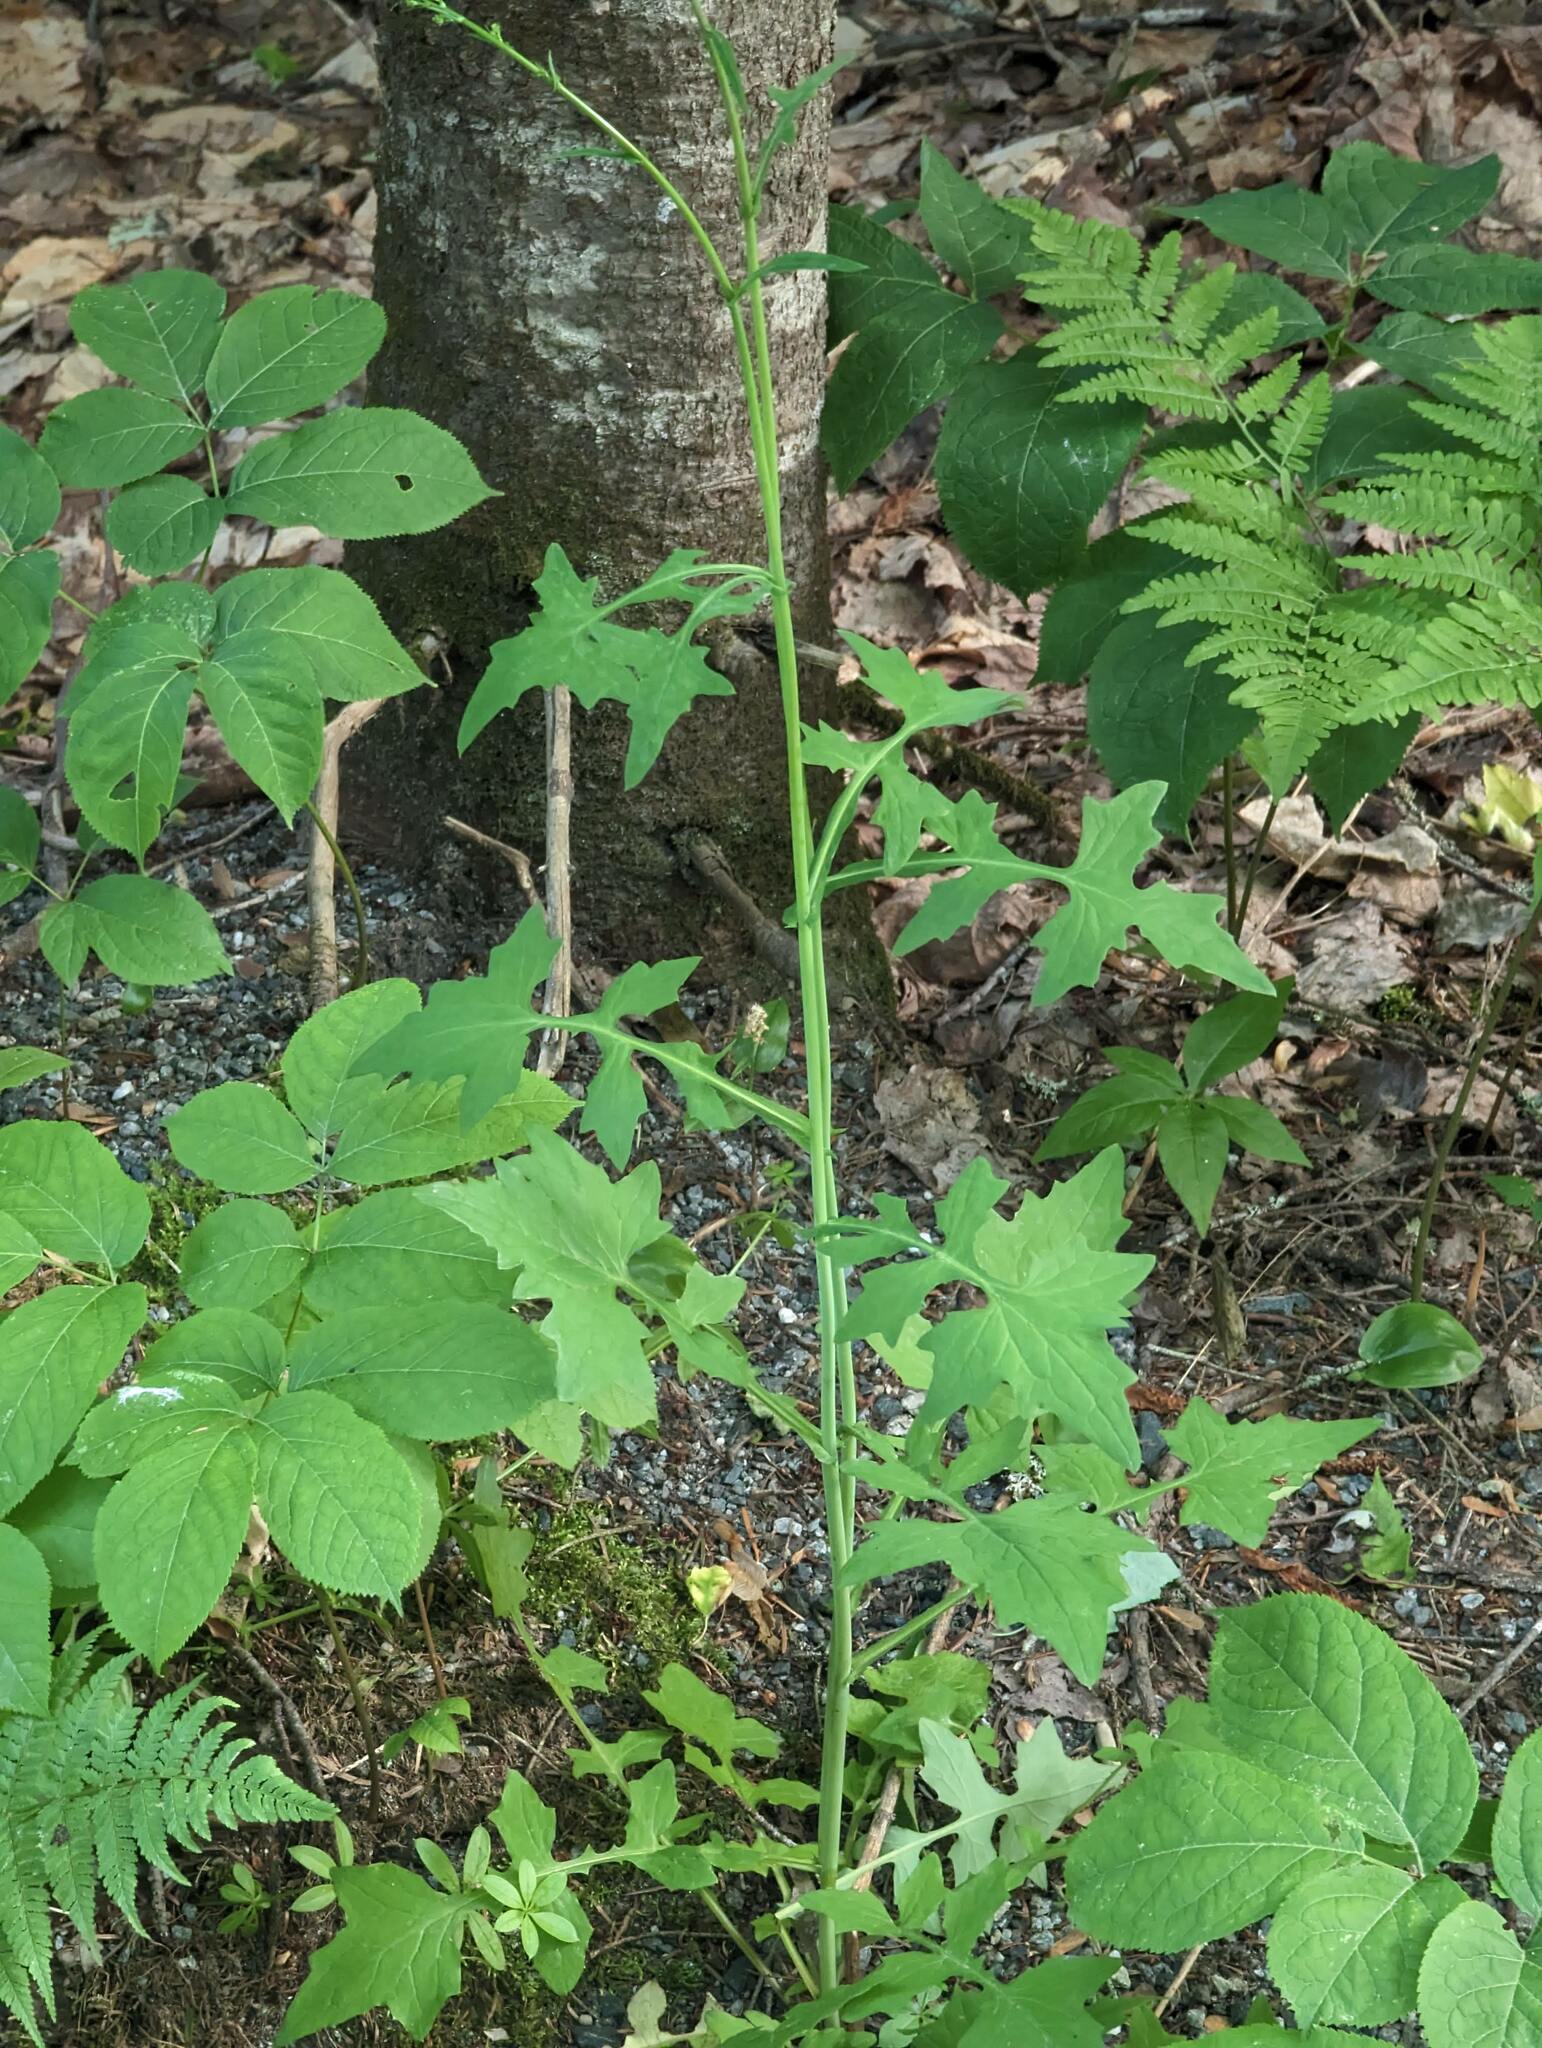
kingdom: Plantae
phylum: Tracheophyta
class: Magnoliopsida
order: Asterales
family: Asteraceae
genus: Mycelis
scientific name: Mycelis muralis
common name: Wall lettuce
